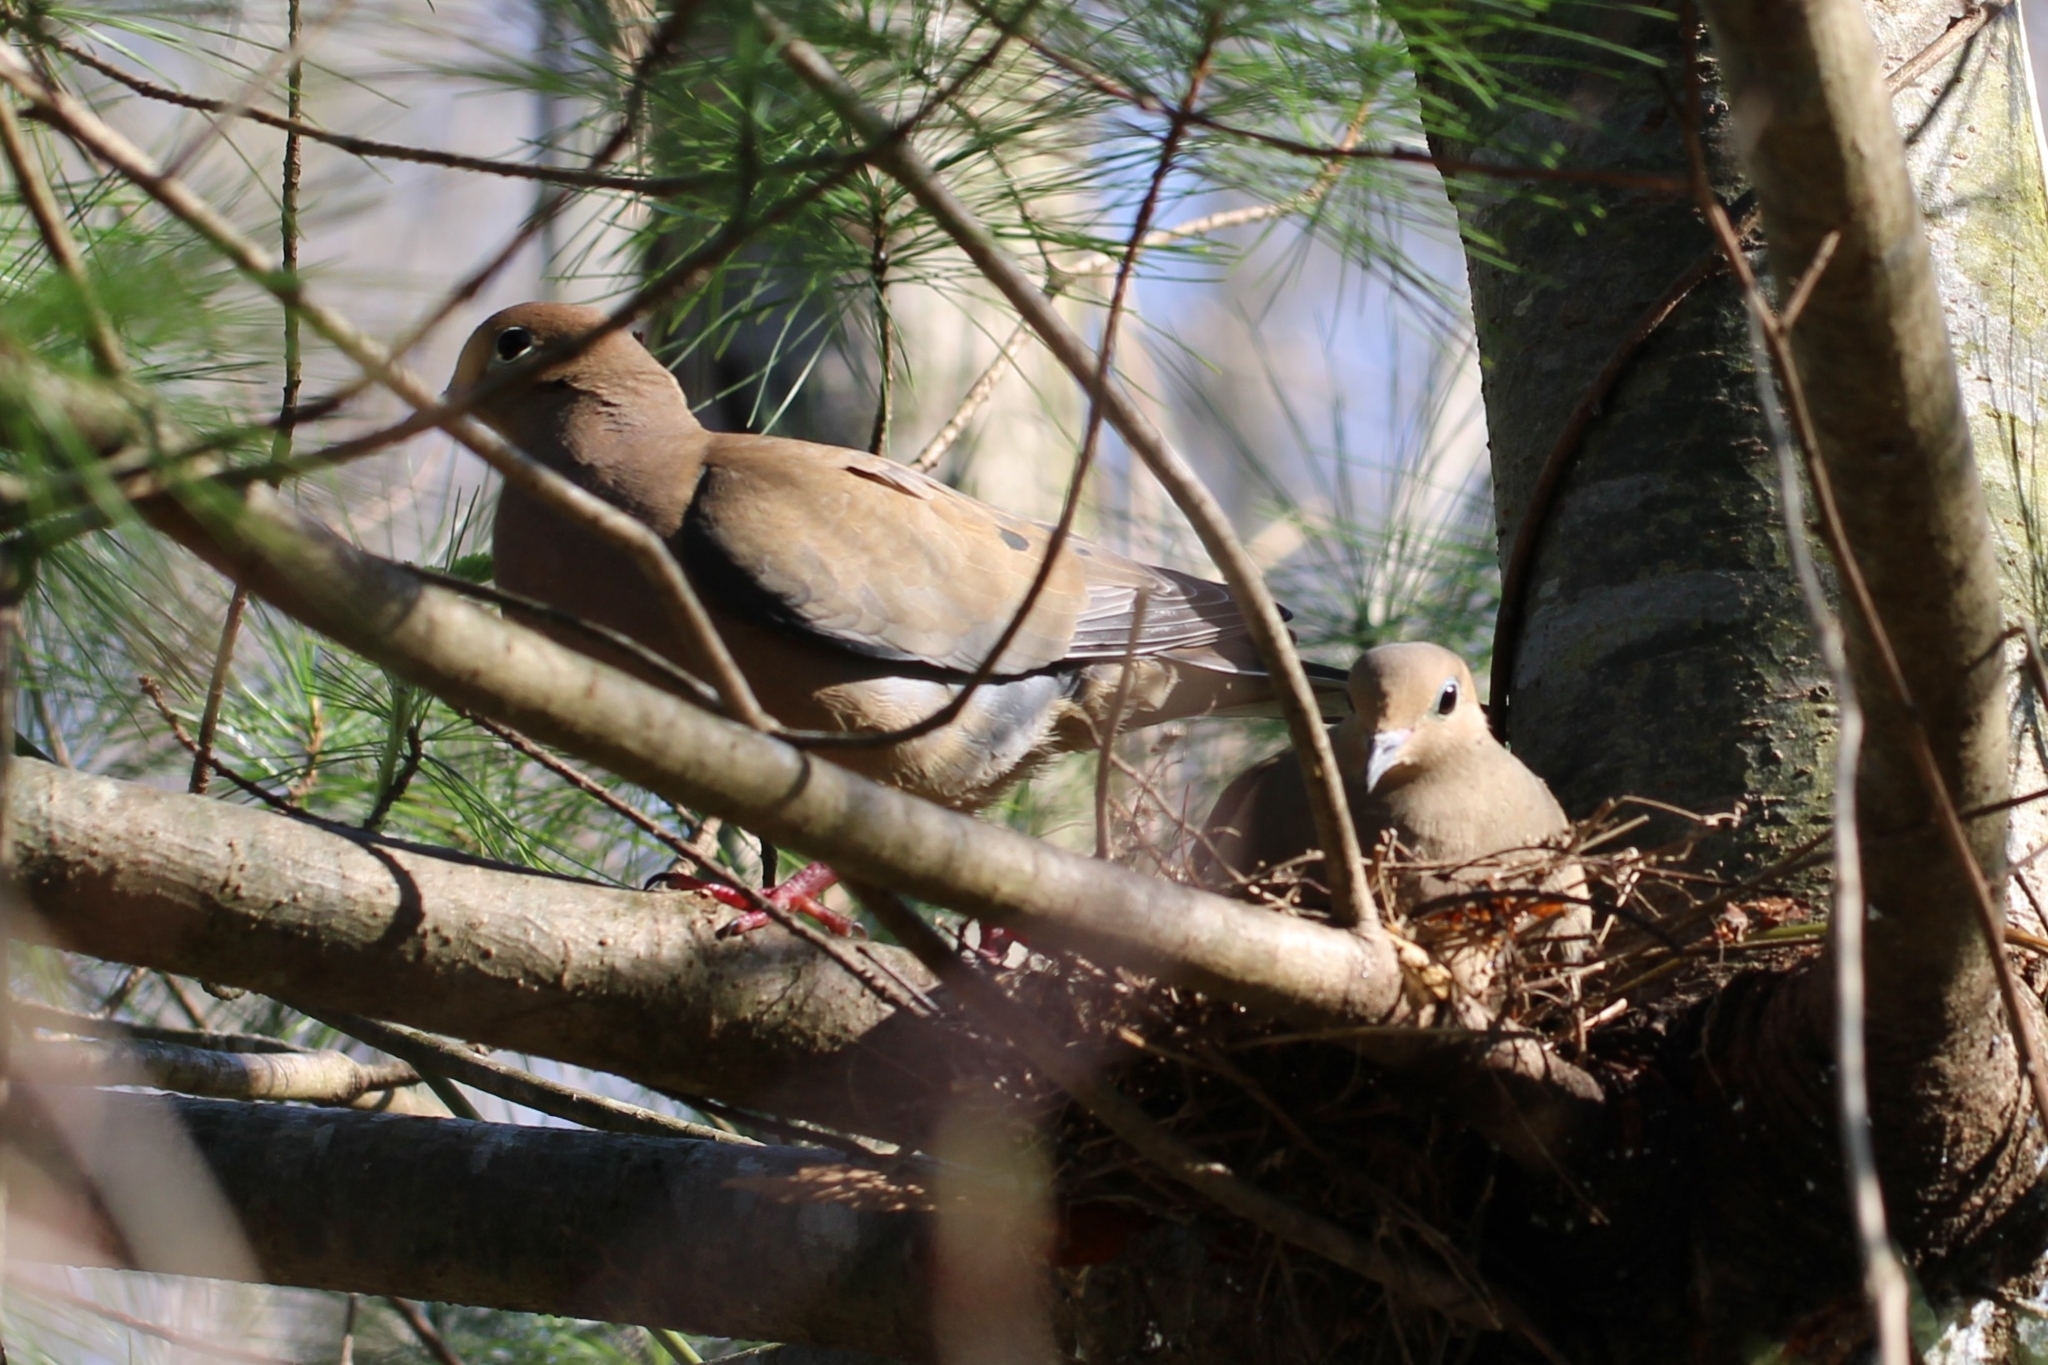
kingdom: Animalia
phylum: Chordata
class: Aves
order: Columbiformes
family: Columbidae
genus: Zenaida
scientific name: Zenaida macroura
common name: Mourning dove
